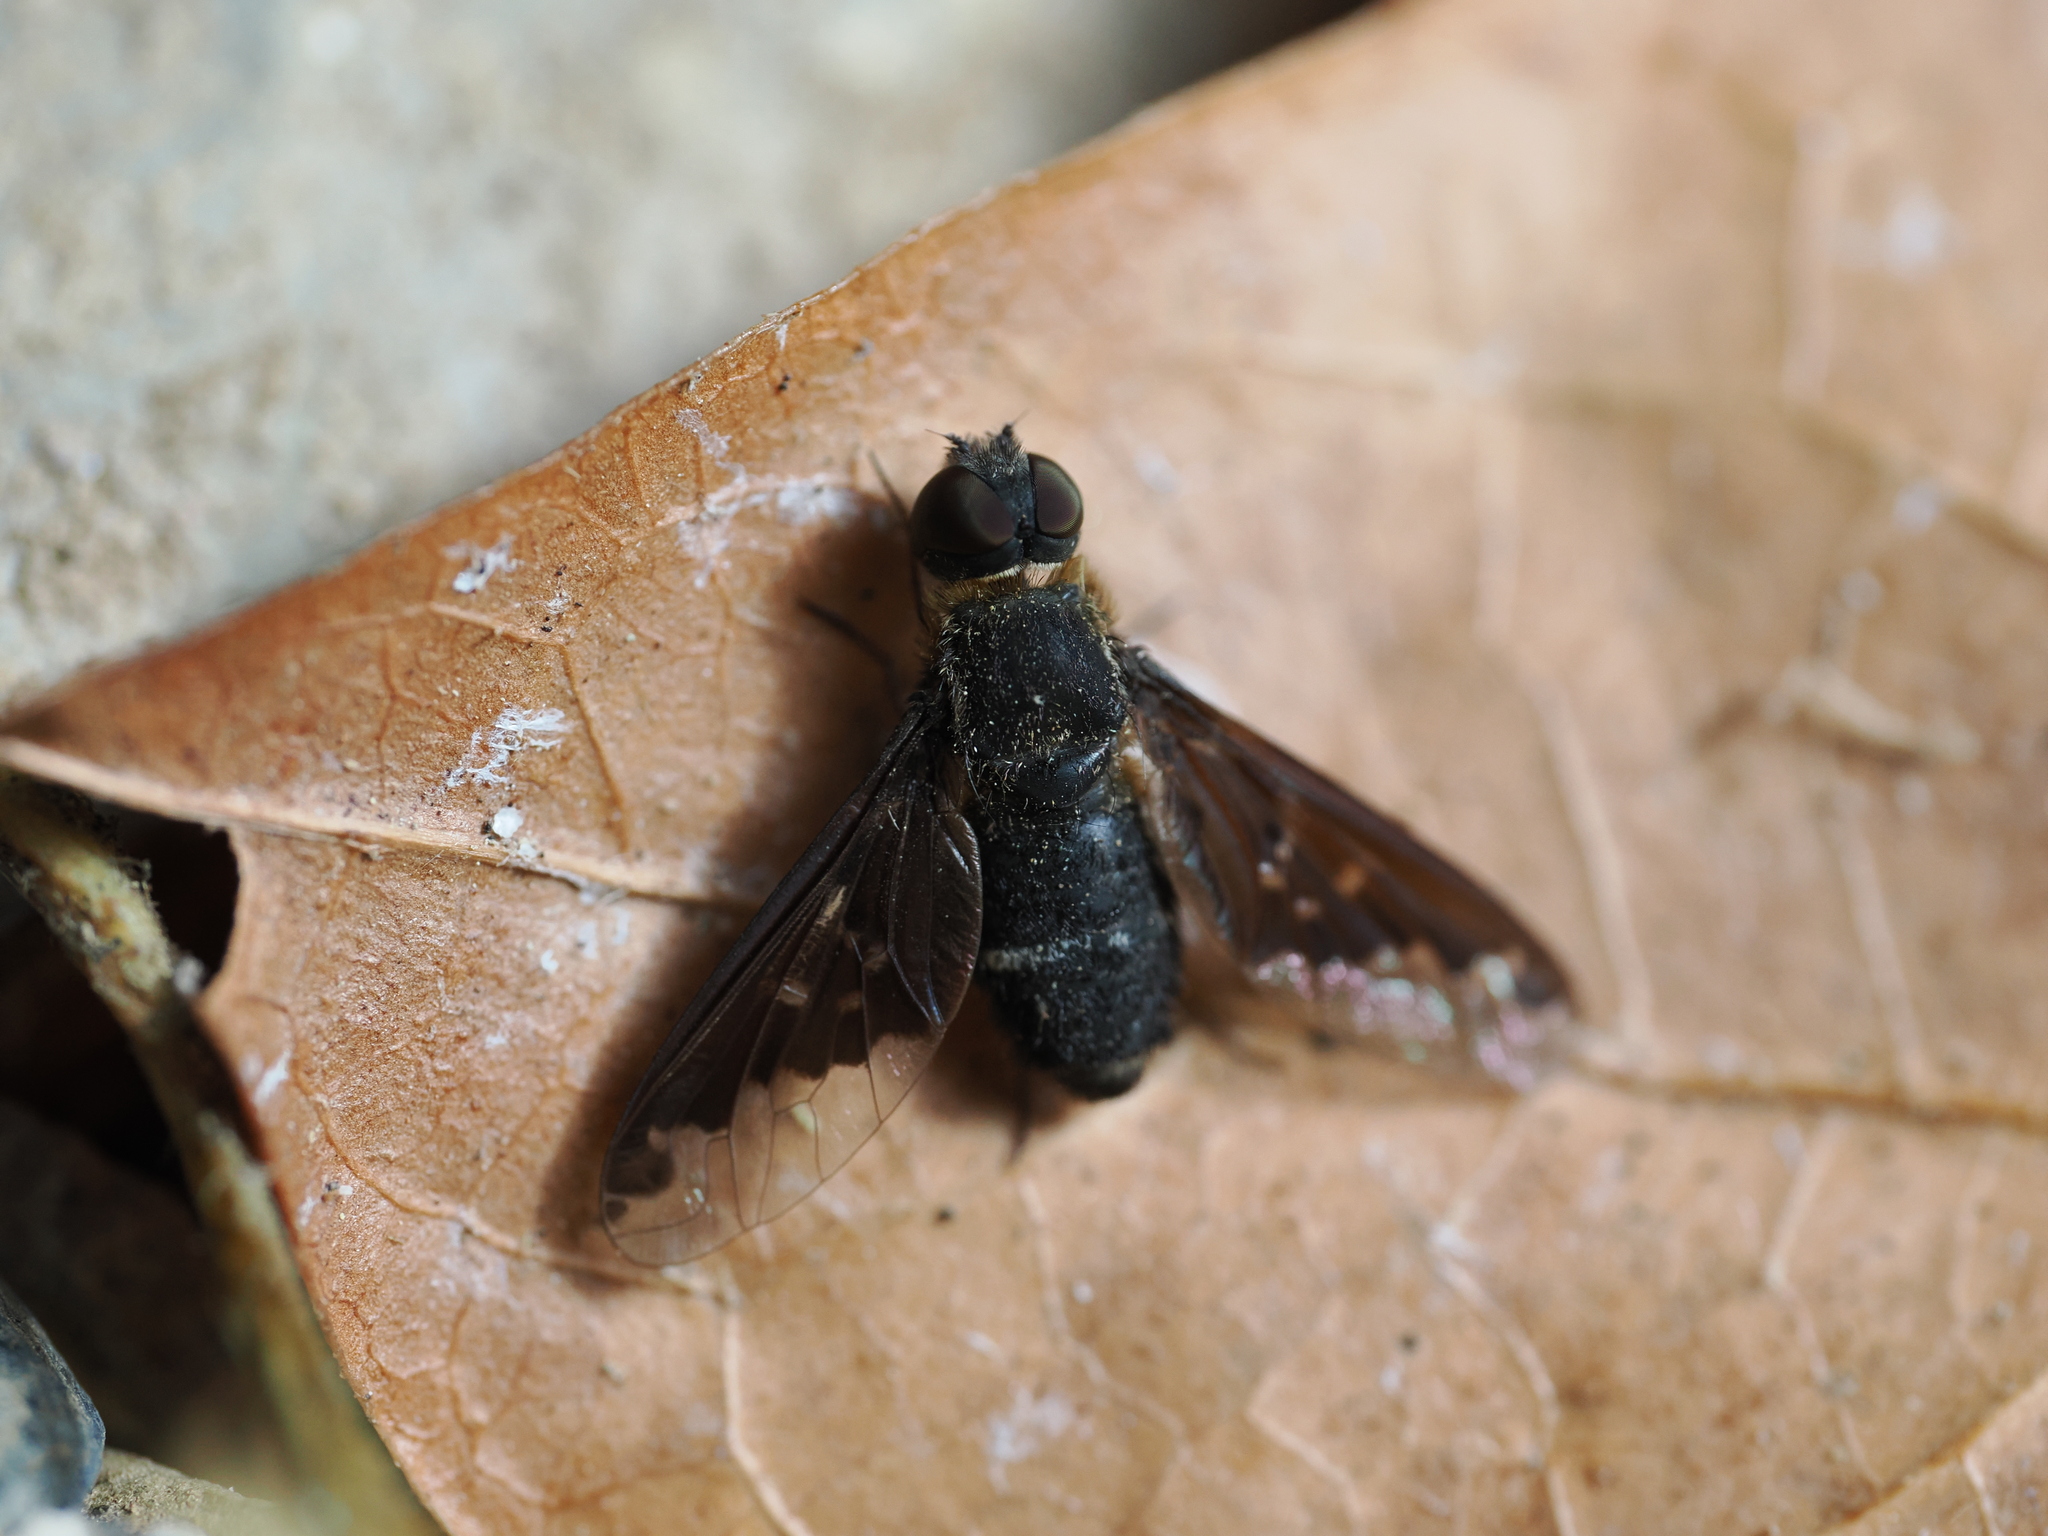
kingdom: Animalia
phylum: Arthropoda
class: Insecta
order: Diptera
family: Bombyliidae
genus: Hemipenthes
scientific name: Hemipenthes velutina
